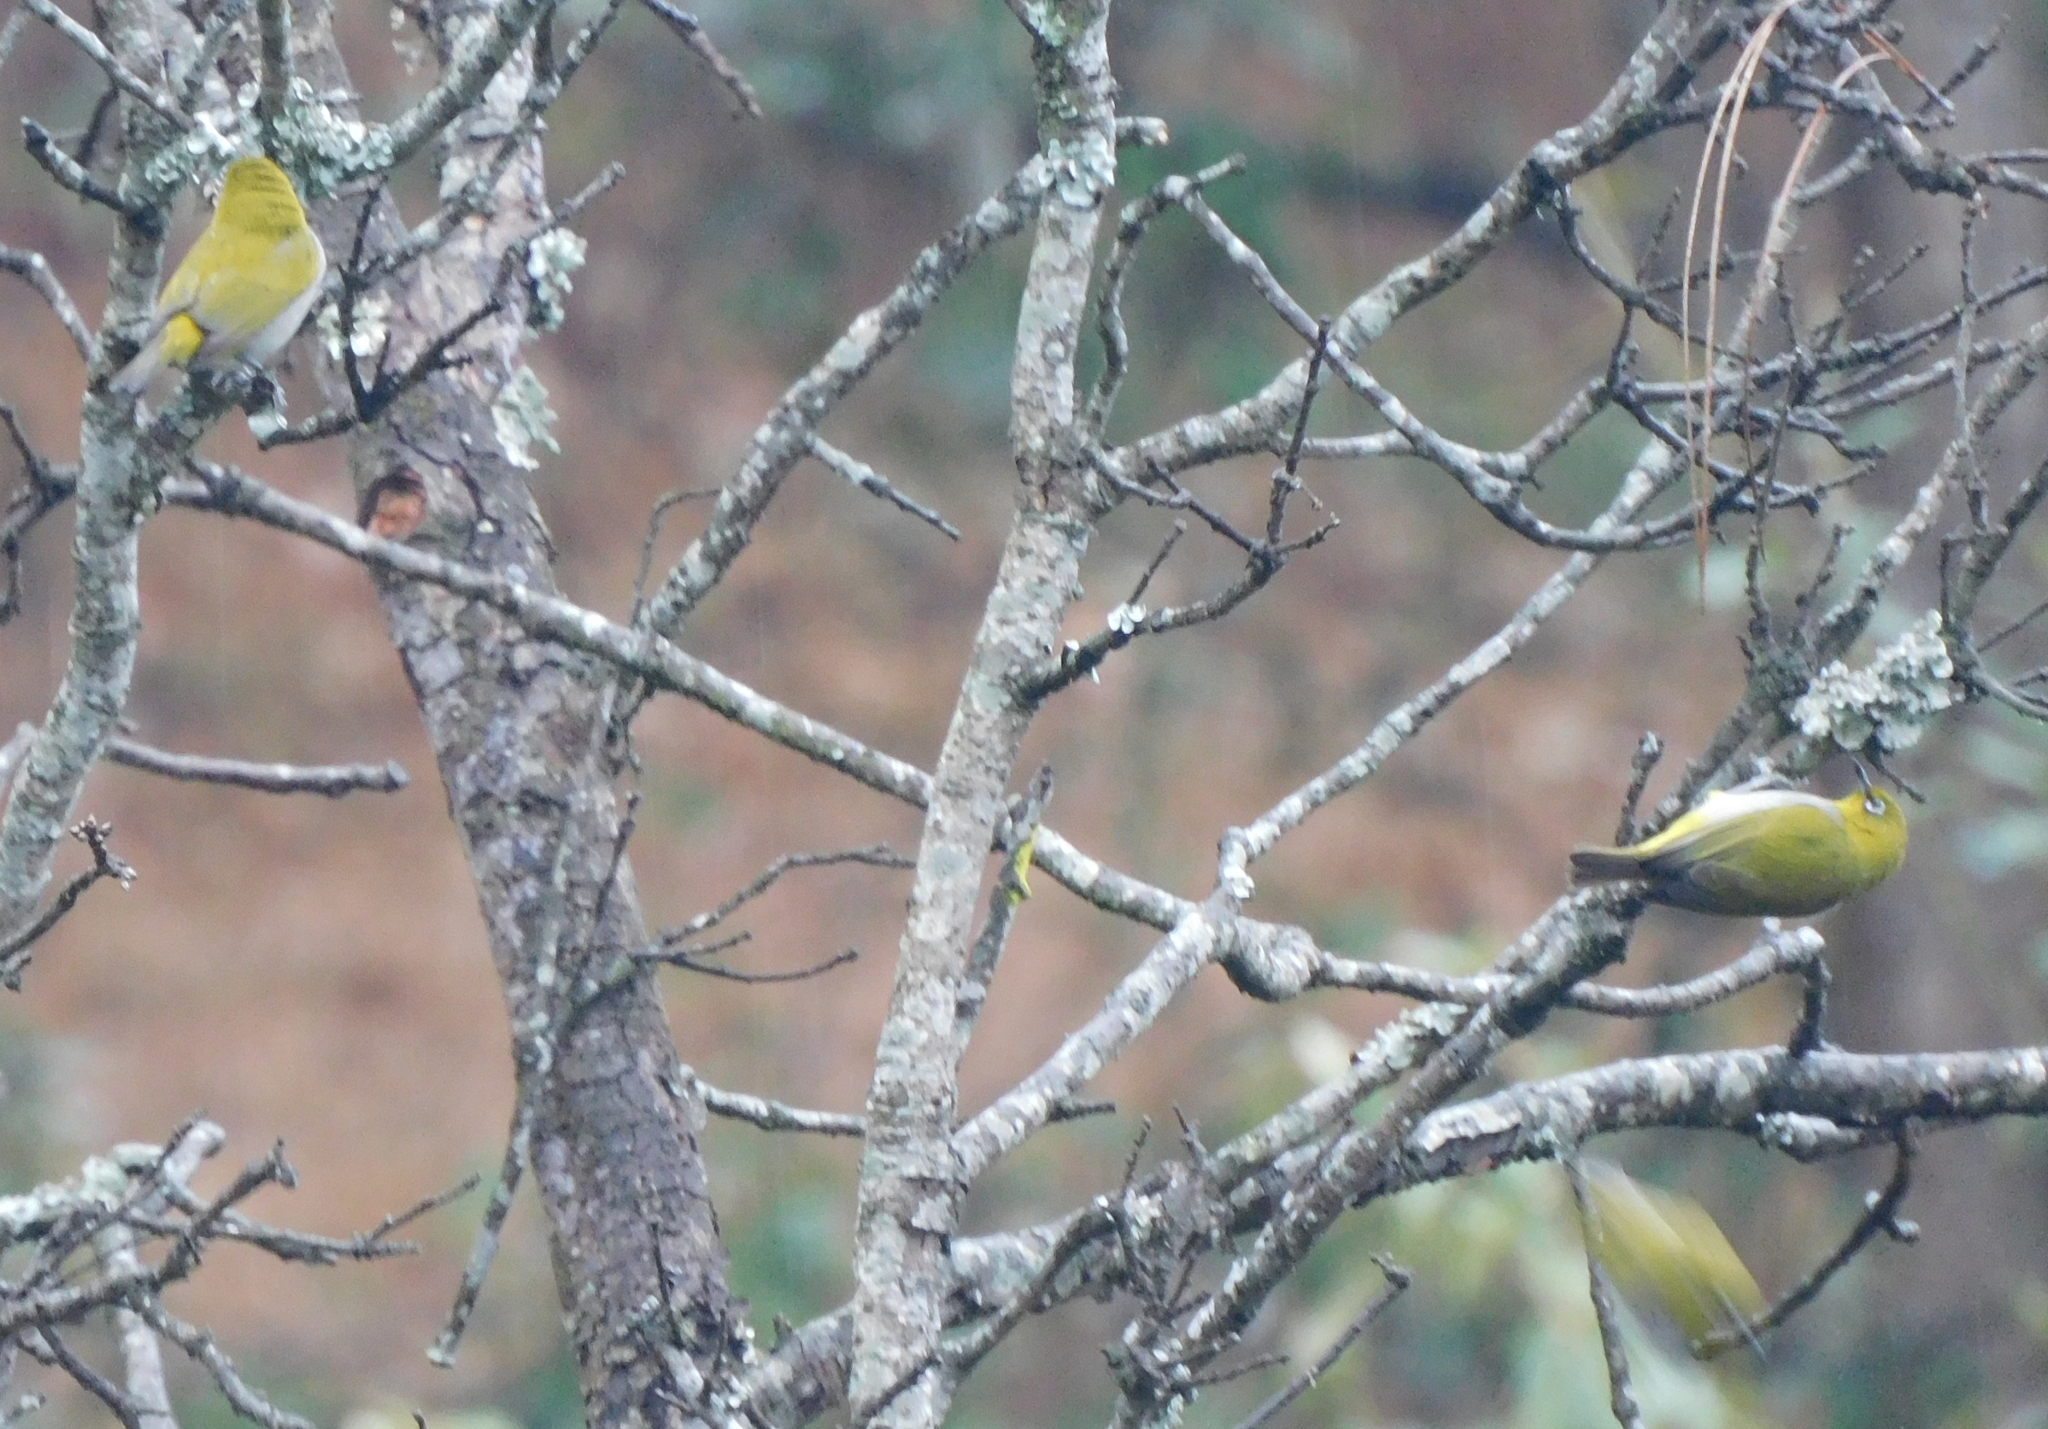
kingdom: Animalia
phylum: Chordata
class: Aves
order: Passeriformes
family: Zosteropidae
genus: Zosterops
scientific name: Zosterops palpebrosus
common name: Oriental white-eye
